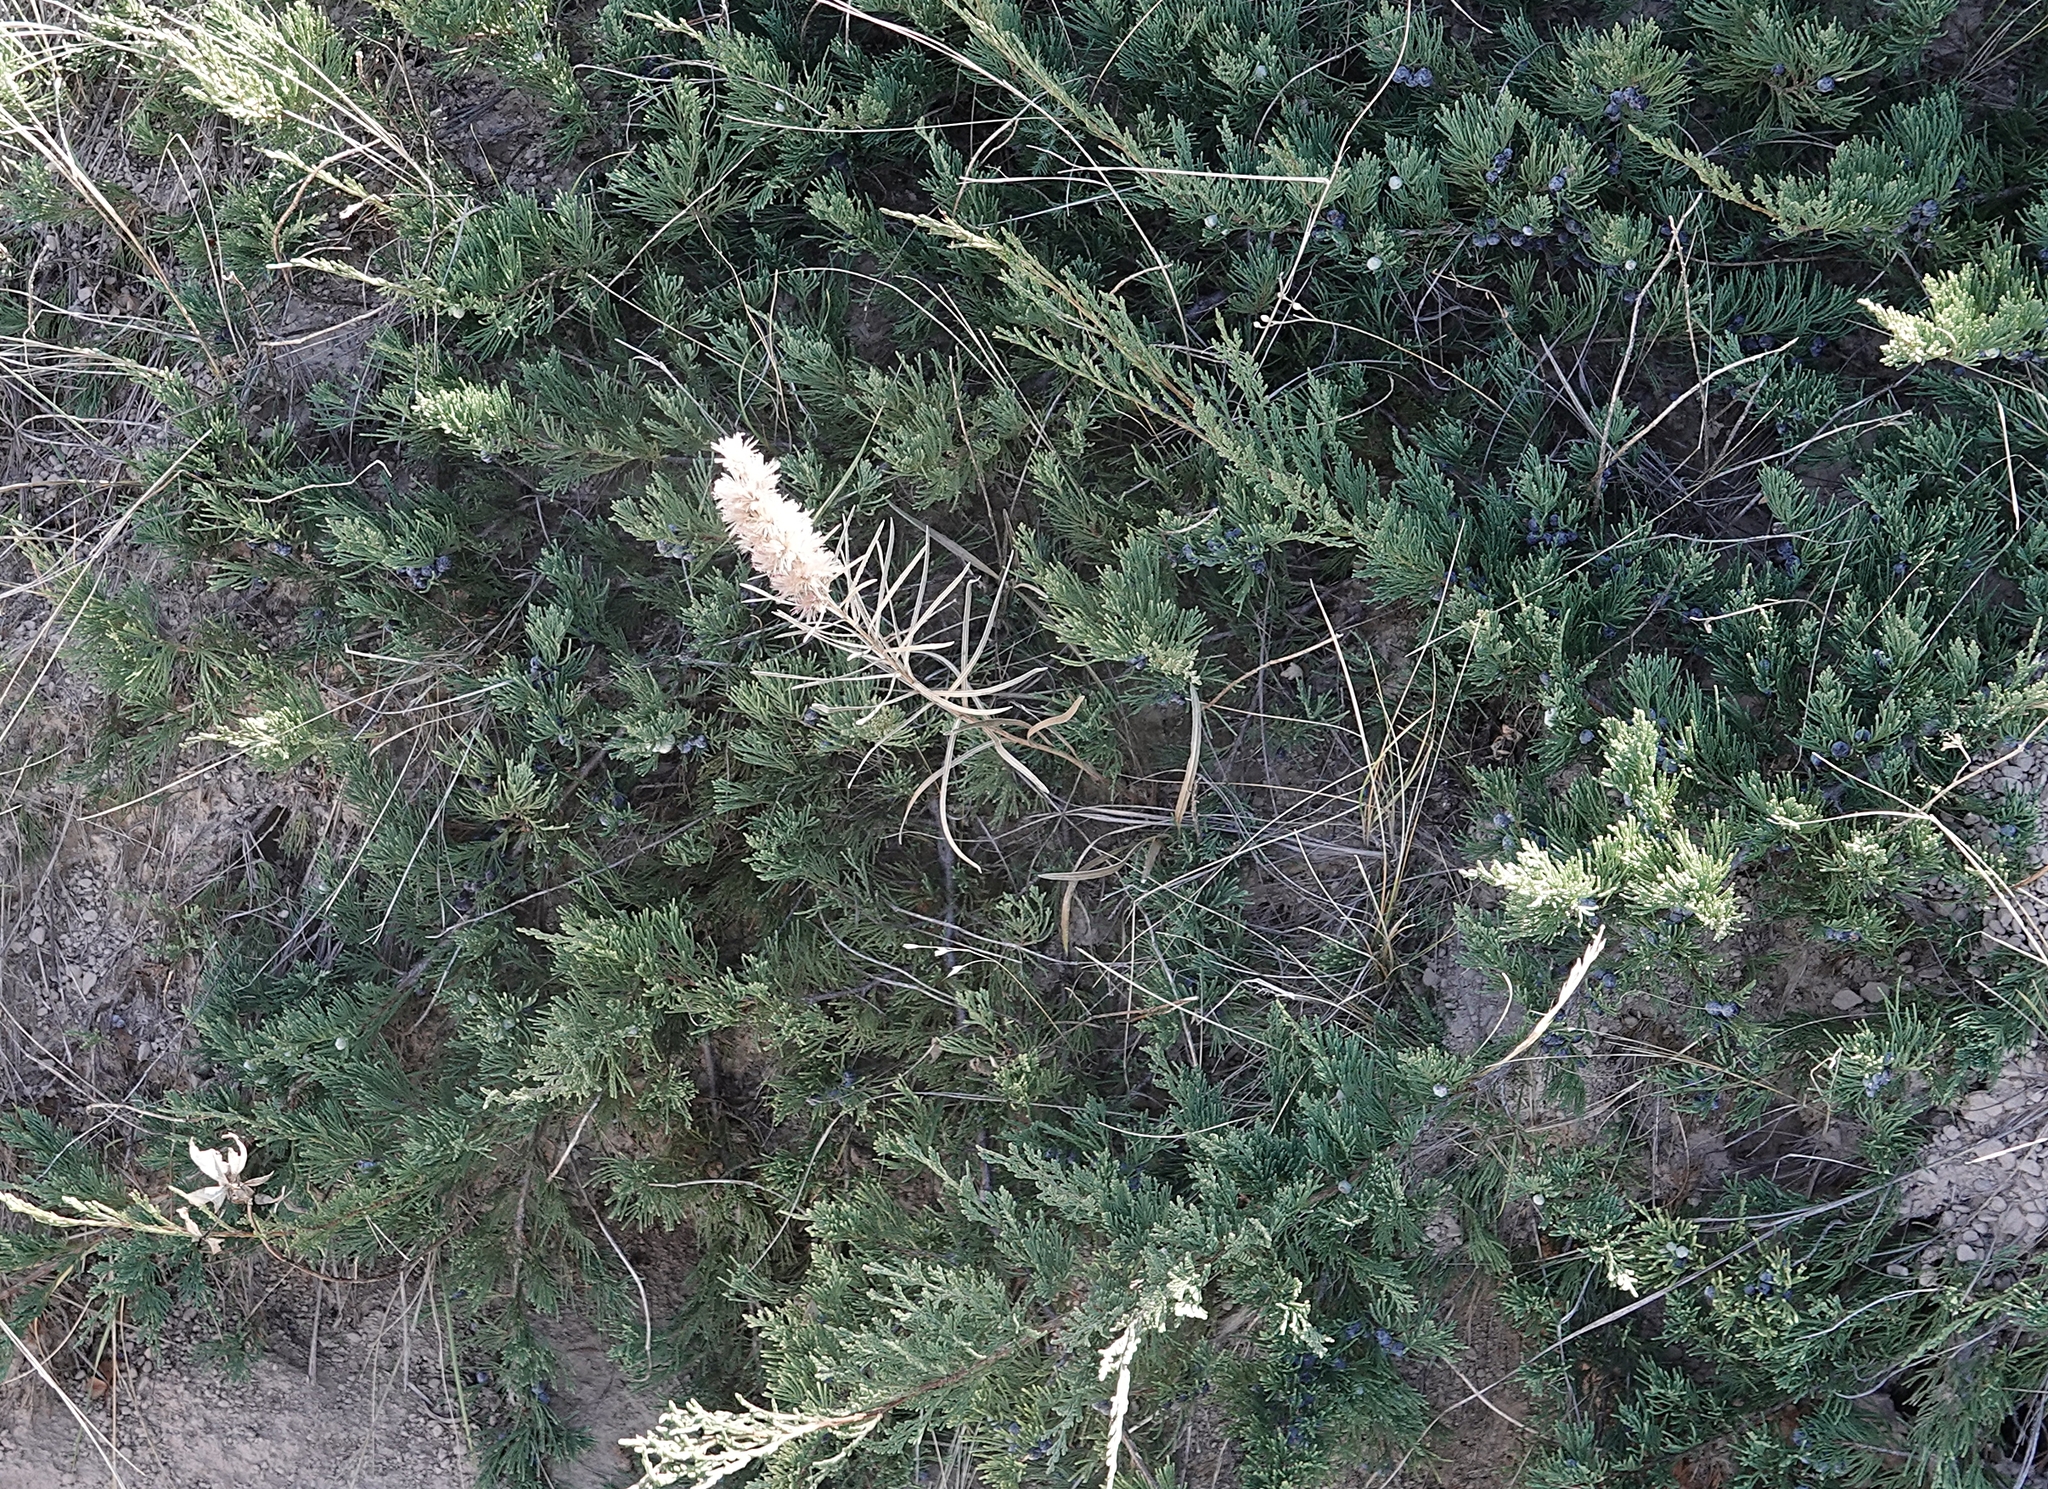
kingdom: Plantae
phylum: Tracheophyta
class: Magnoliopsida
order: Asterales
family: Asteraceae
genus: Liatris
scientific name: Liatris punctata
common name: Dotted gayfeather
